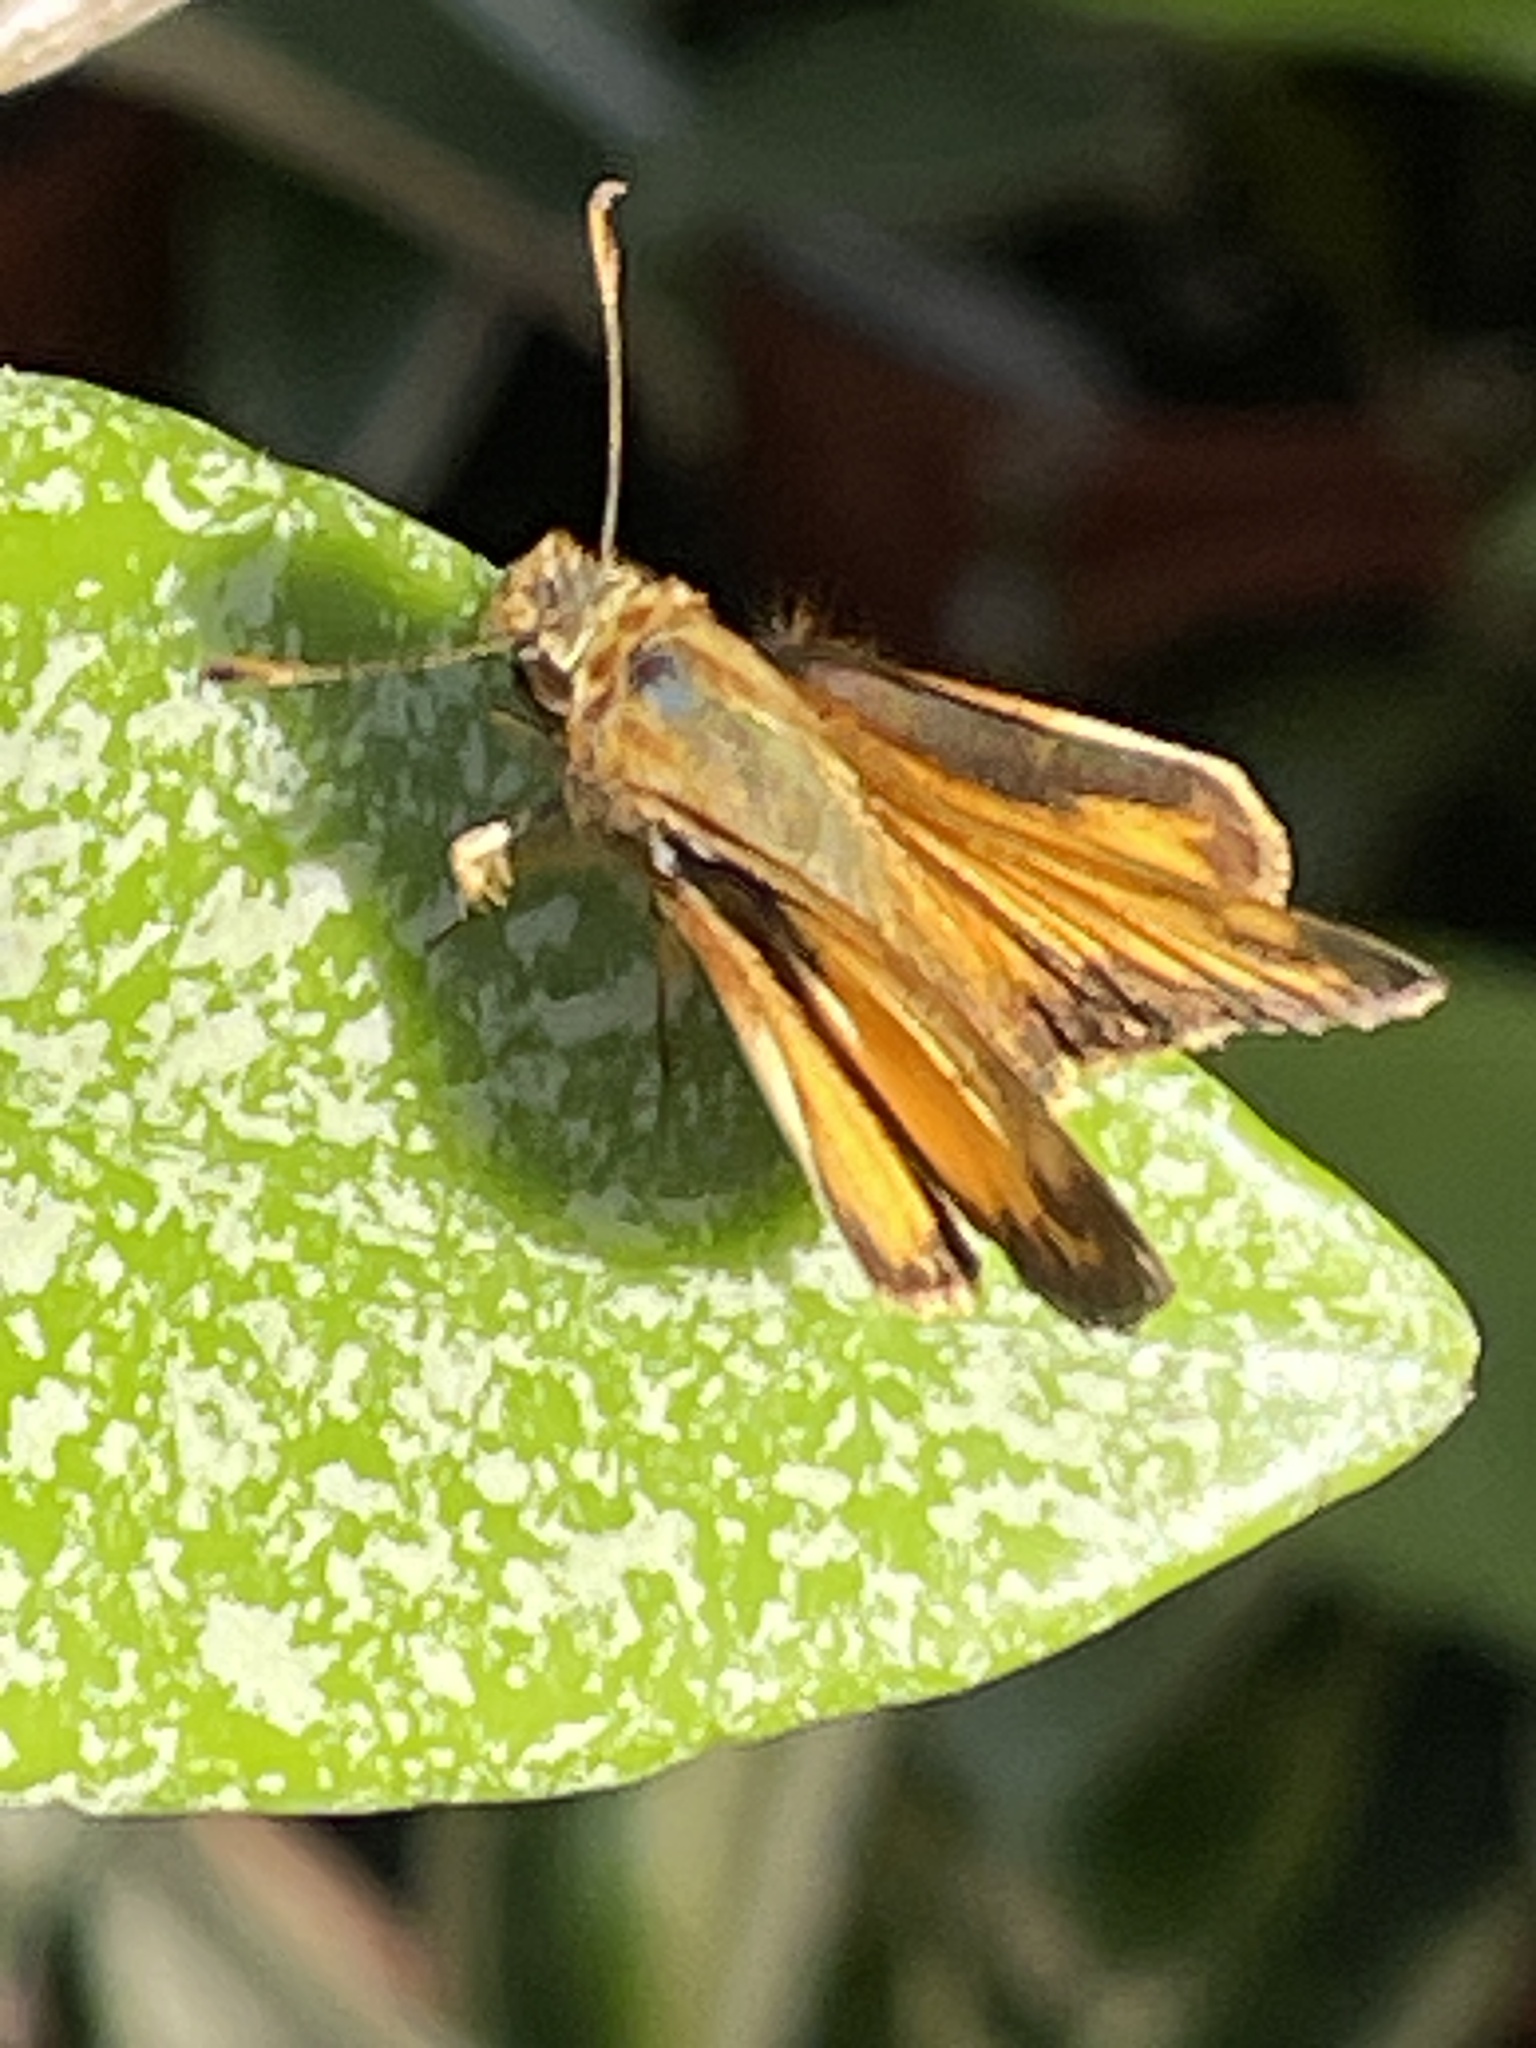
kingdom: Animalia
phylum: Arthropoda
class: Insecta
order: Lepidoptera
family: Hesperiidae
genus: Lon
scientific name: Lon zabulon
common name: Zabulon skipper
